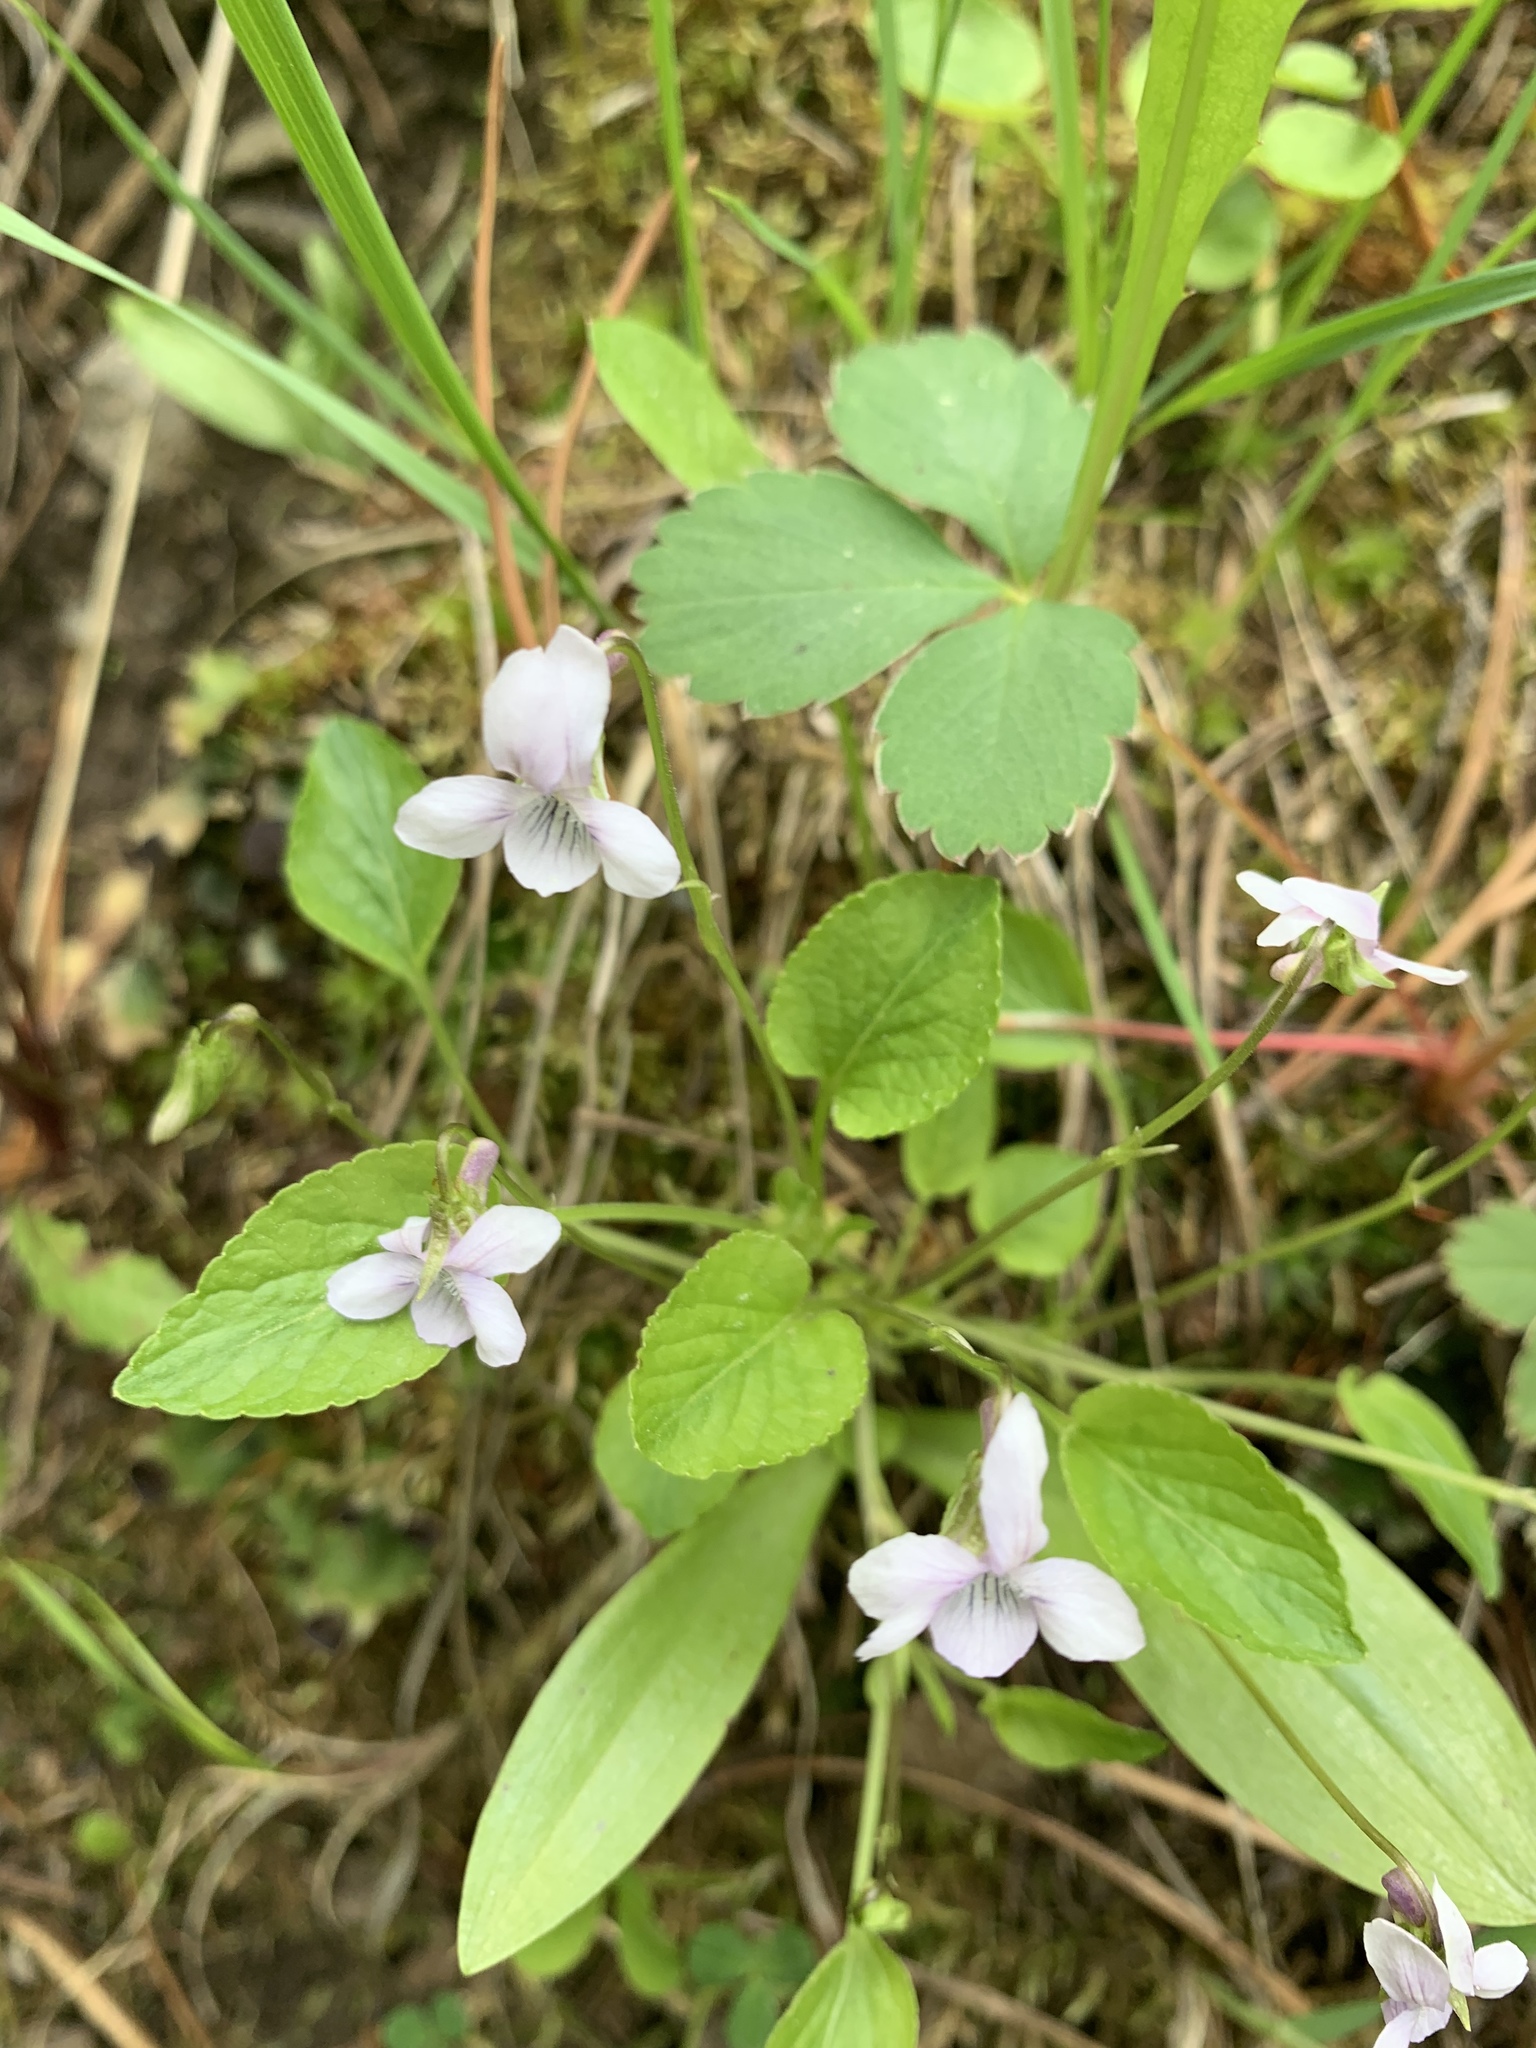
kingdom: Plantae
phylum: Tracheophyta
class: Magnoliopsida
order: Malpighiales
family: Violaceae
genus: Viola
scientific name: Viola adunca
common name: Sand violet
